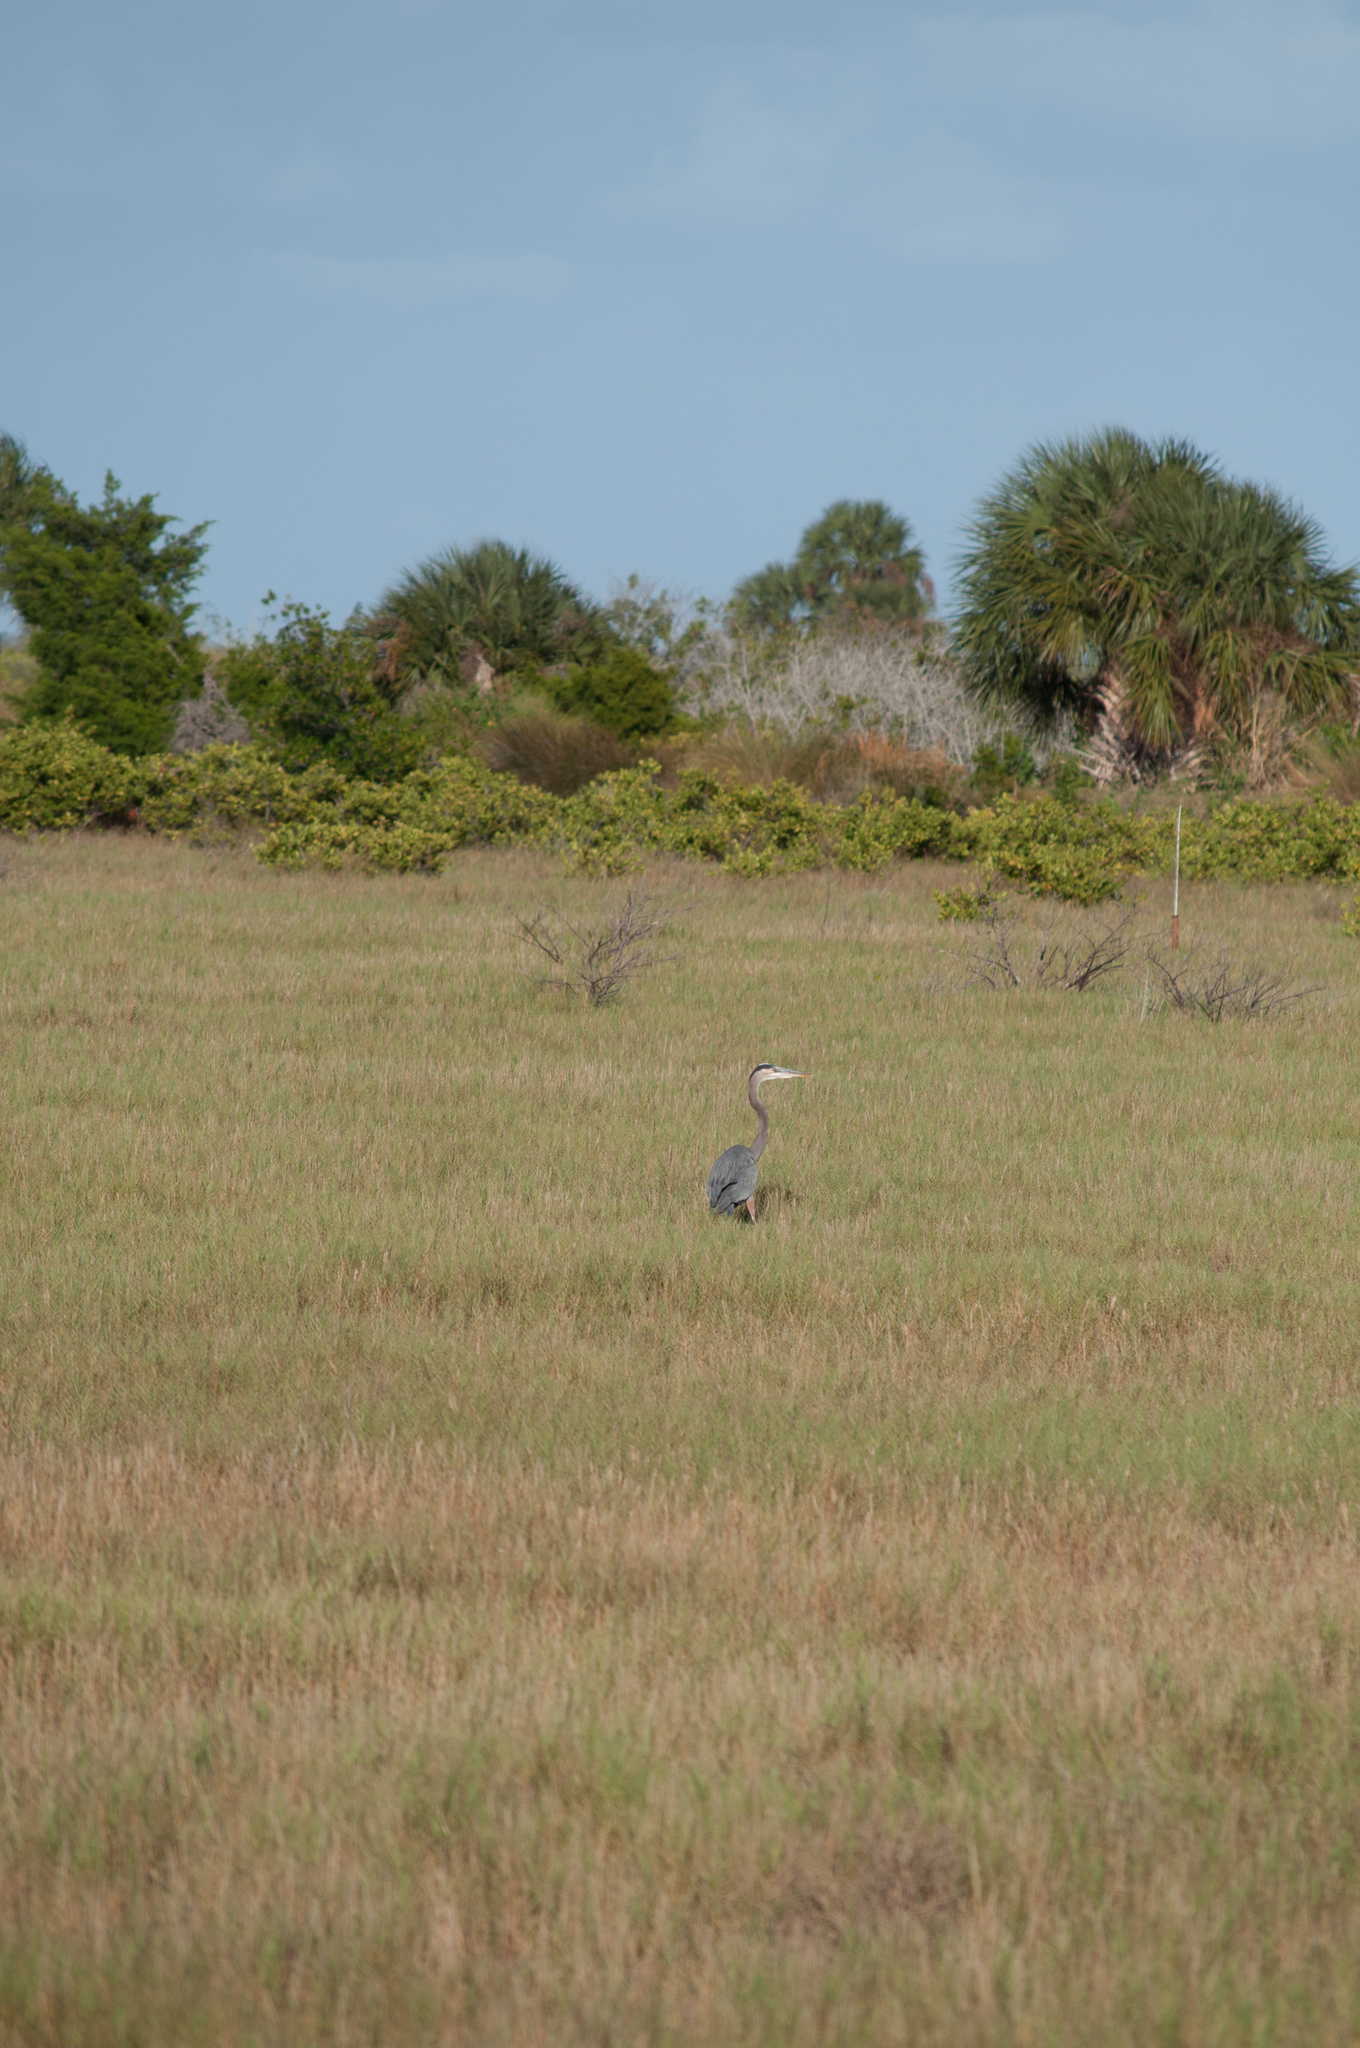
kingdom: Animalia
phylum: Chordata
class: Aves
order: Pelecaniformes
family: Ardeidae
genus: Ardea
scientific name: Ardea herodias
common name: Great blue heron
